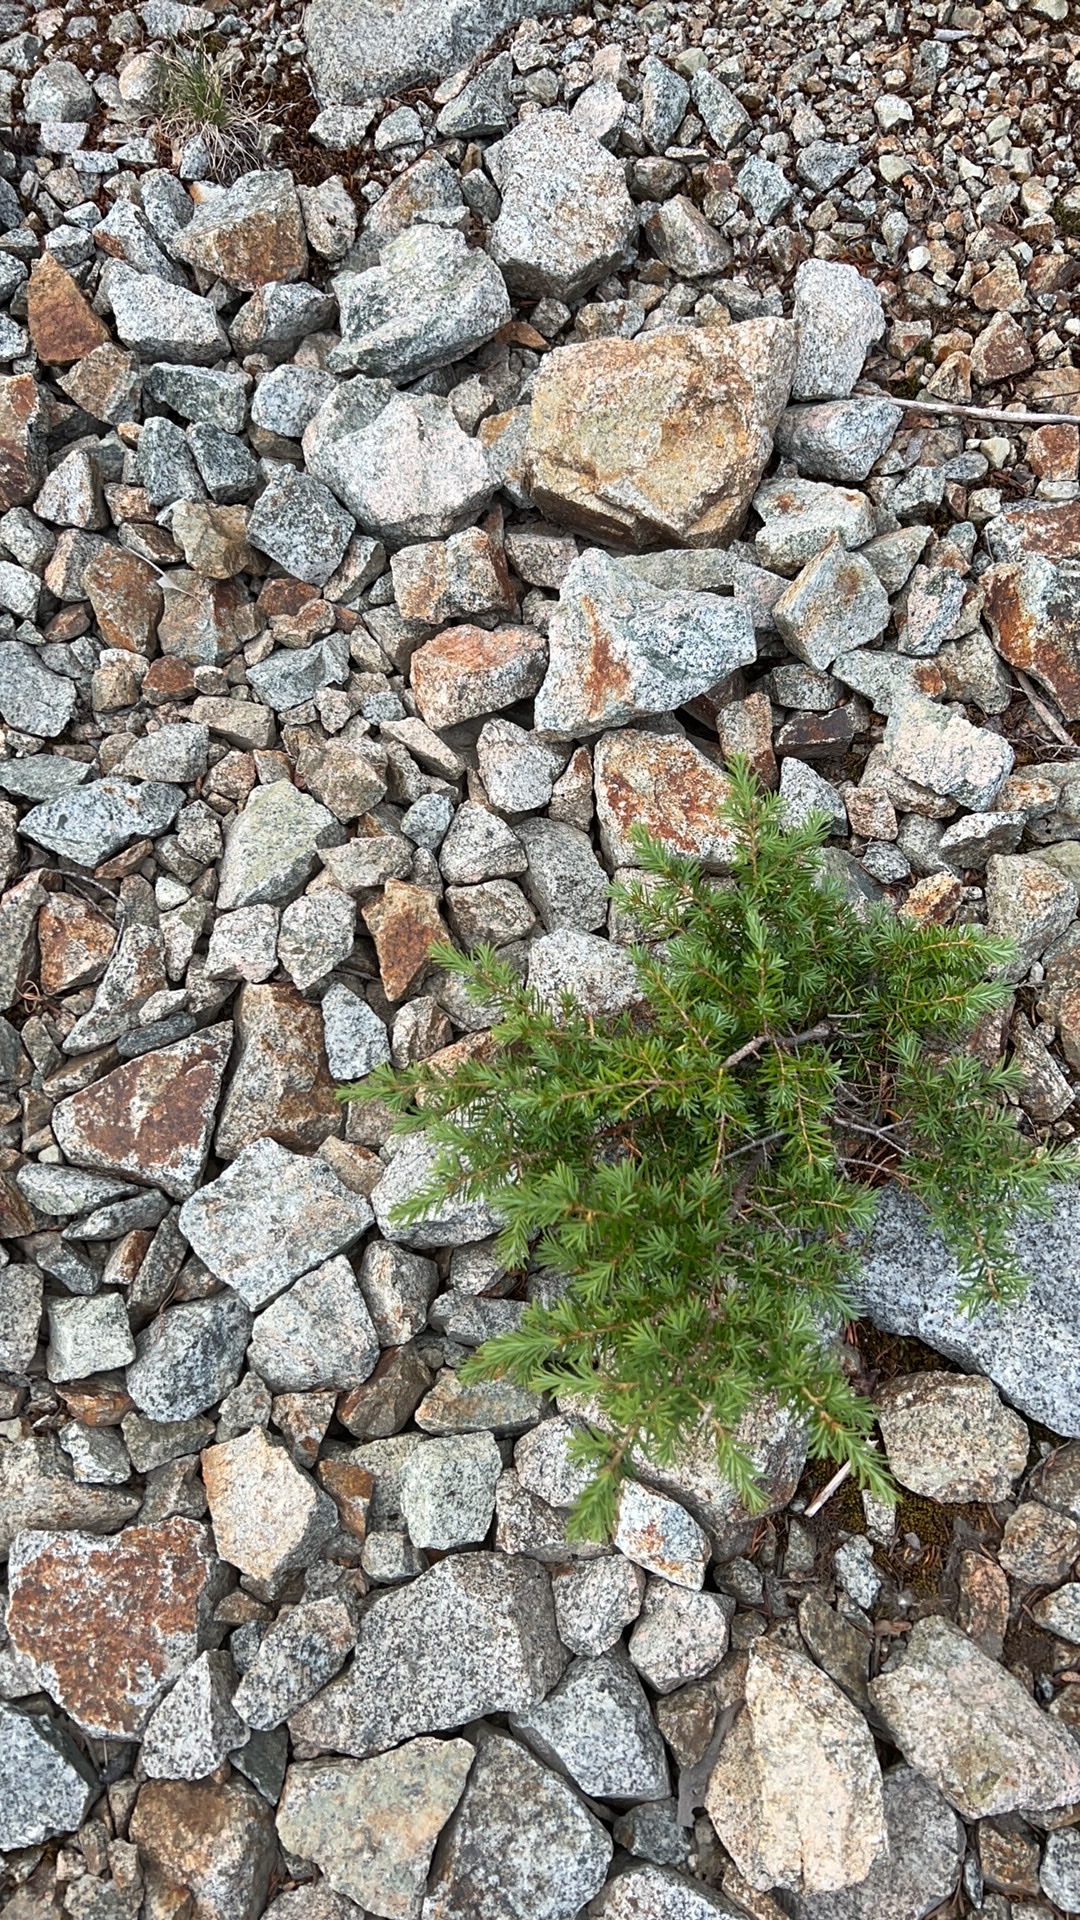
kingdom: Plantae
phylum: Tracheophyta
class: Pinopsida
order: Pinales
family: Pinaceae
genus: Tsuga
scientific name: Tsuga mertensiana
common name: Mountain hemlock
